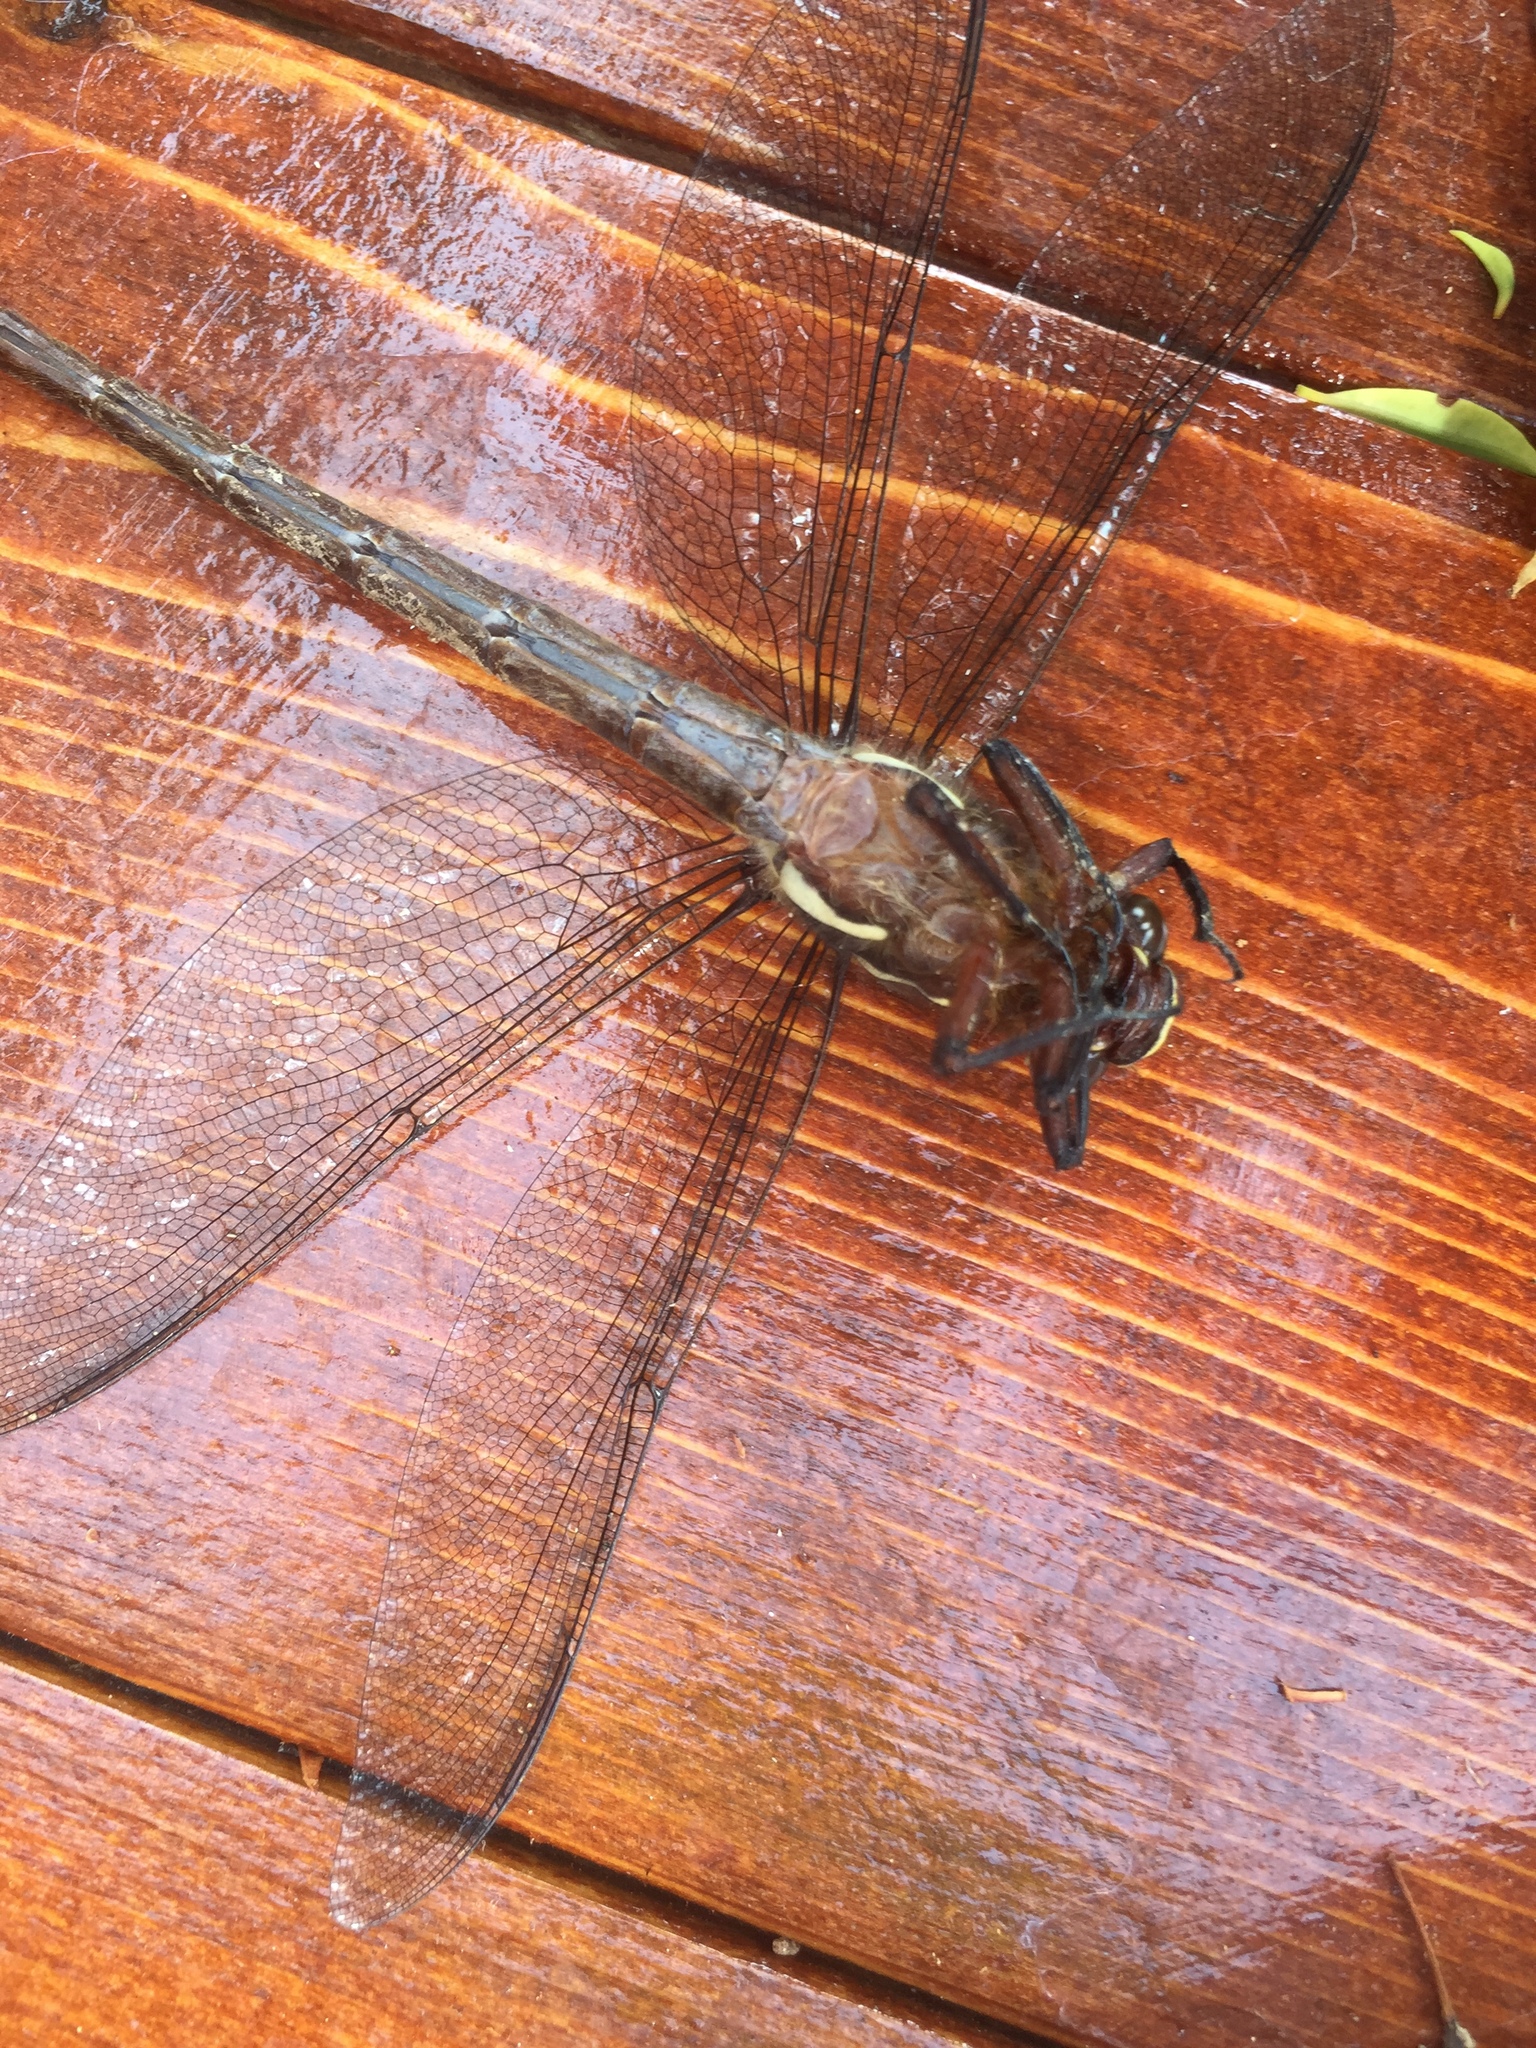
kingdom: Animalia
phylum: Arthropoda
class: Insecta
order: Odonata
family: Petaluridae
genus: Uropetala
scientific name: Uropetala carovei
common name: Bush giant dragonfly
